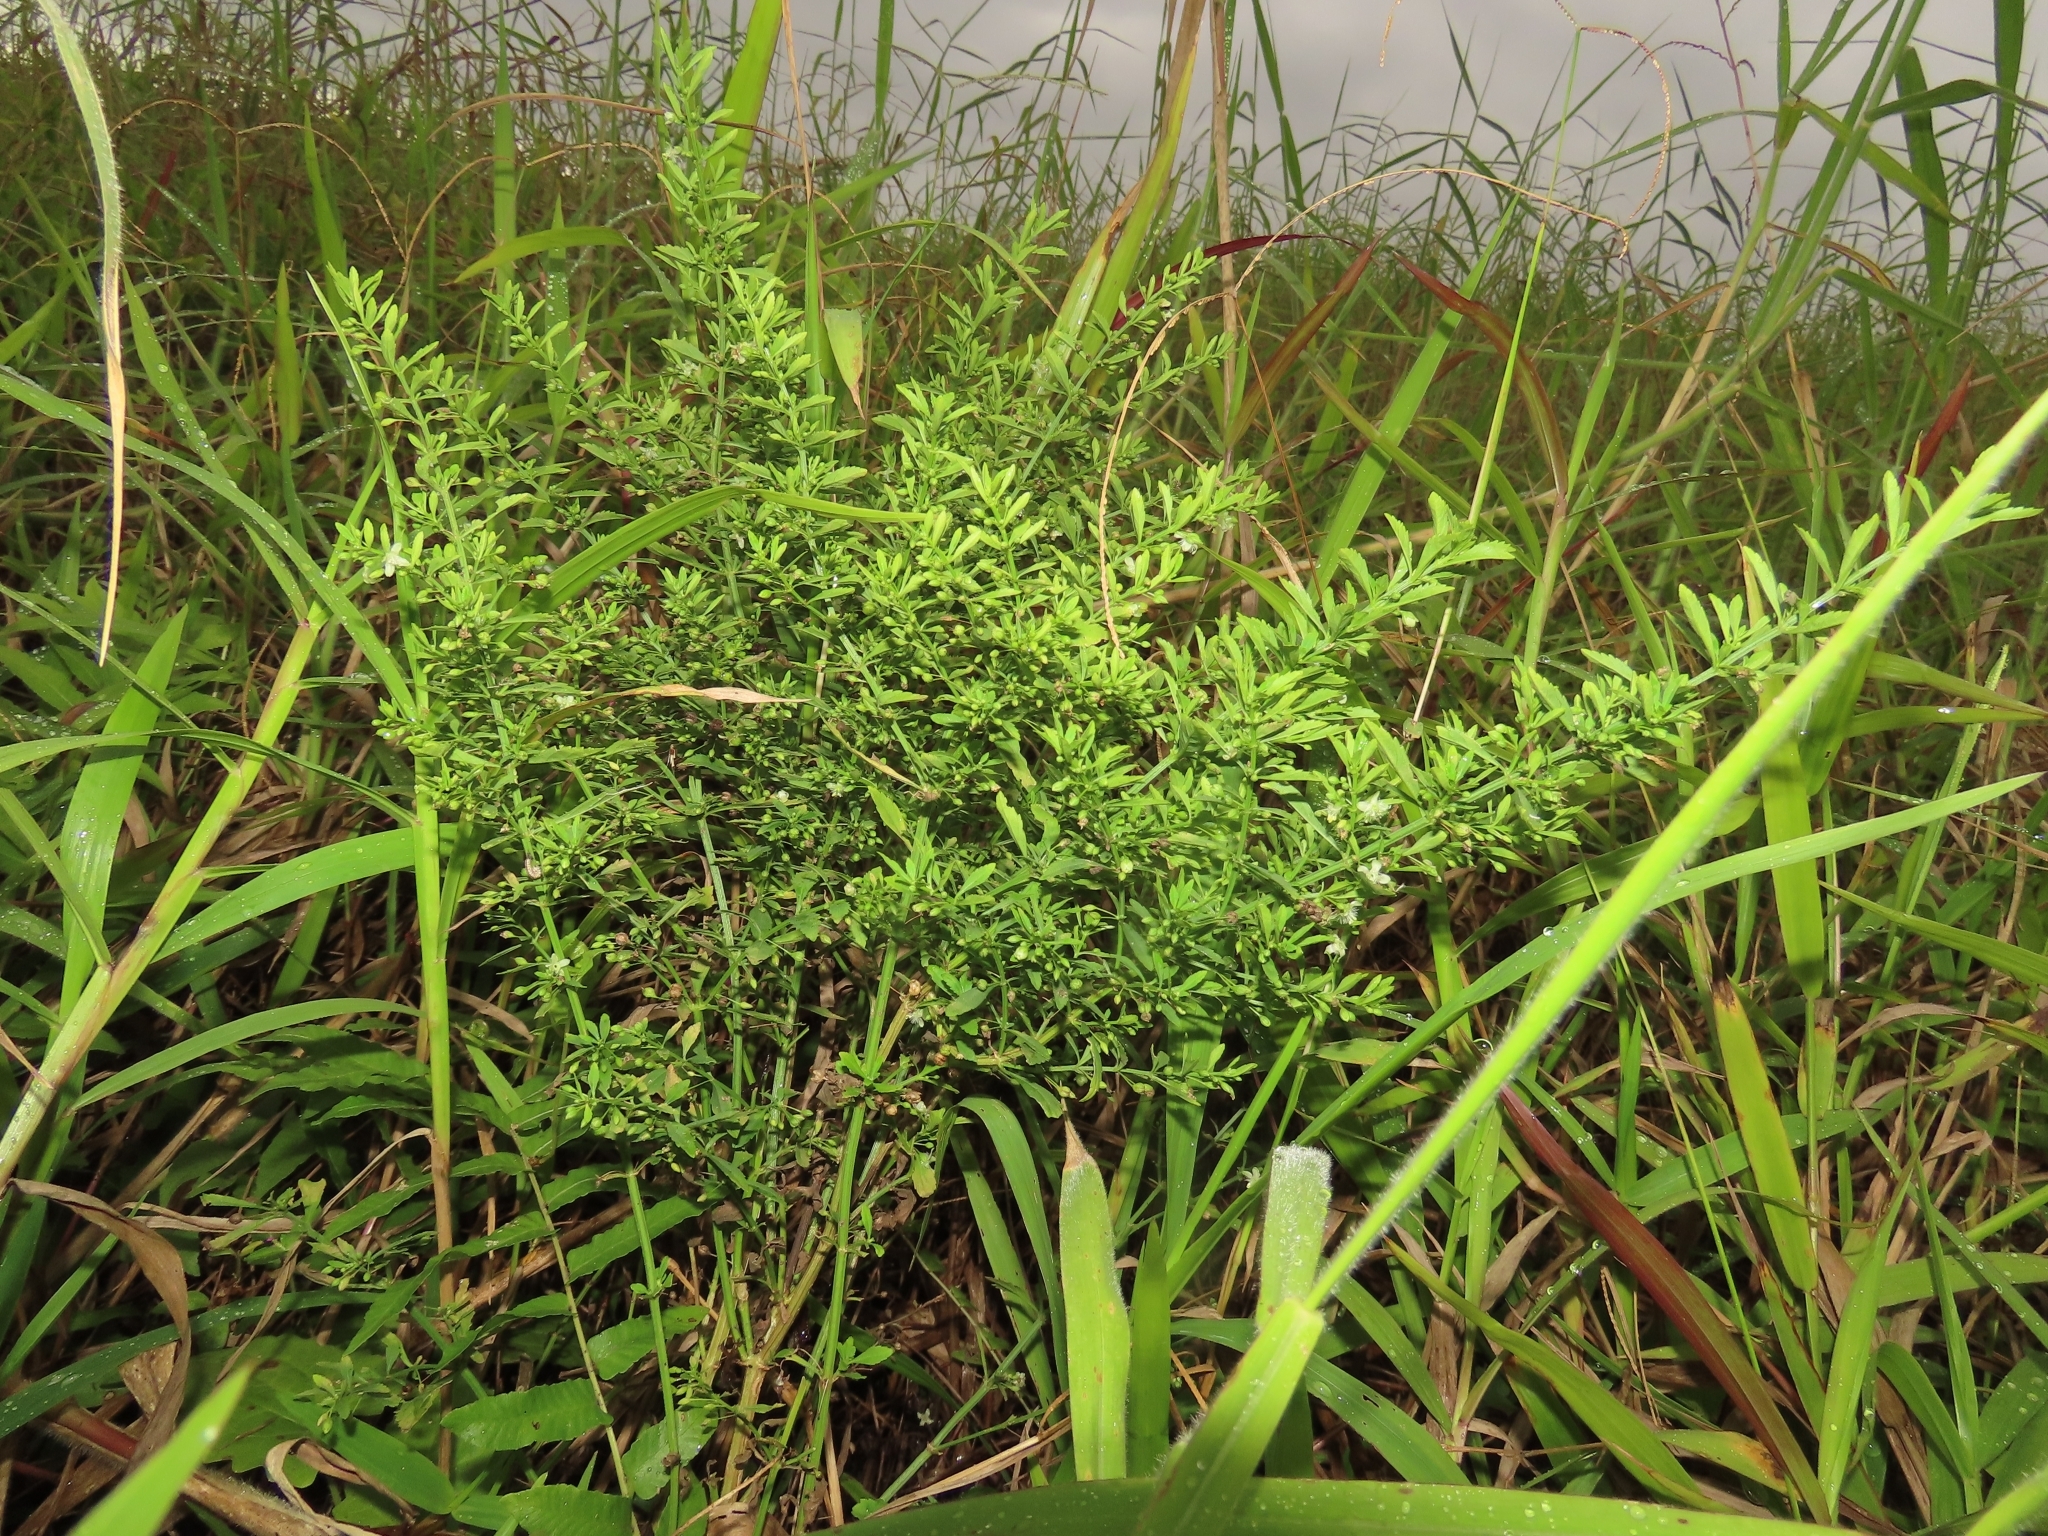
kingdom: Plantae
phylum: Tracheophyta
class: Magnoliopsida
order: Lamiales
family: Plantaginaceae
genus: Scoparia
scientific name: Scoparia dulcis
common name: Scoparia-weed
